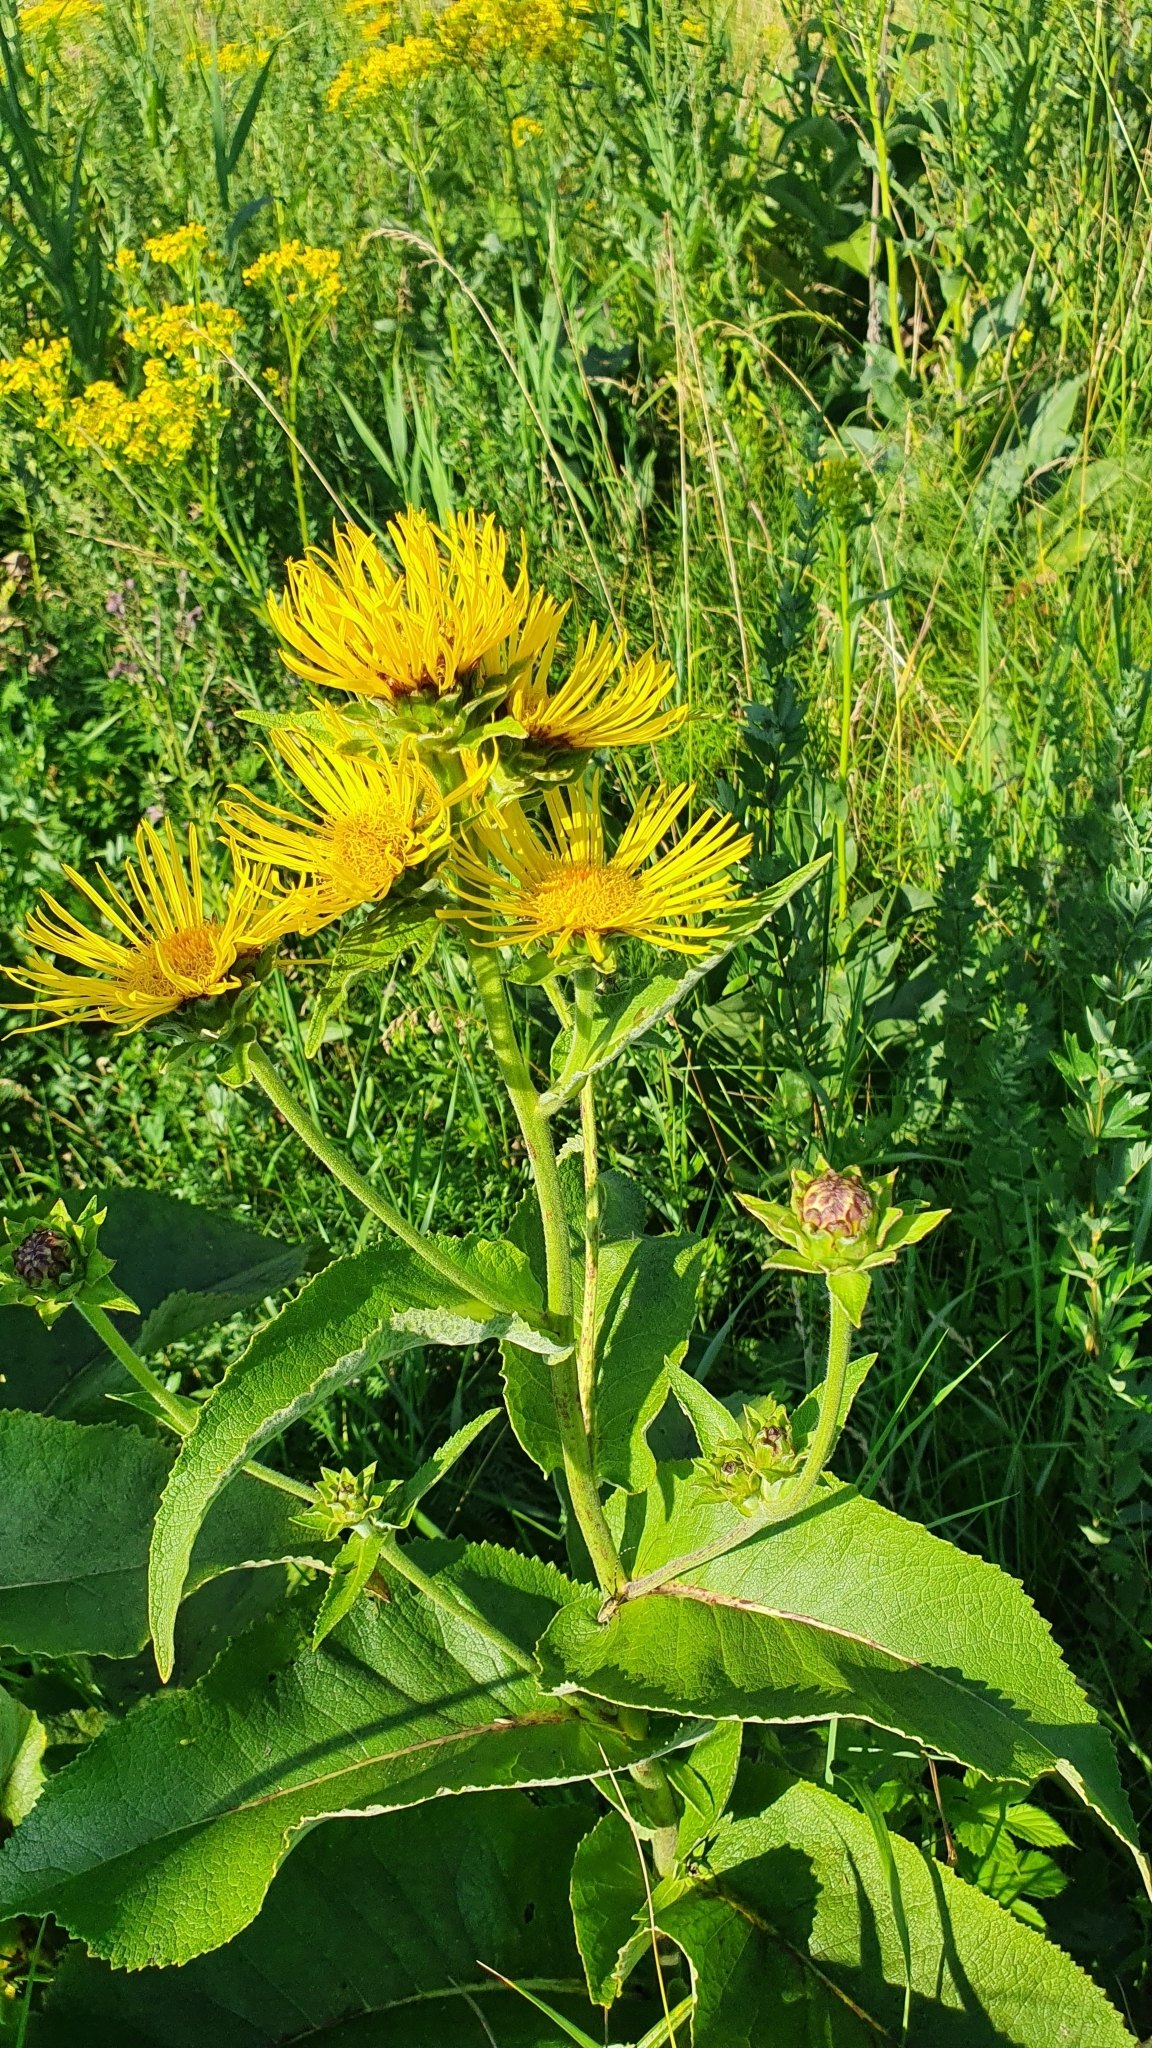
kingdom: Plantae
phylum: Tracheophyta
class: Magnoliopsida
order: Asterales
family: Asteraceae
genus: Inula
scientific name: Inula helenium
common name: Elecampane
